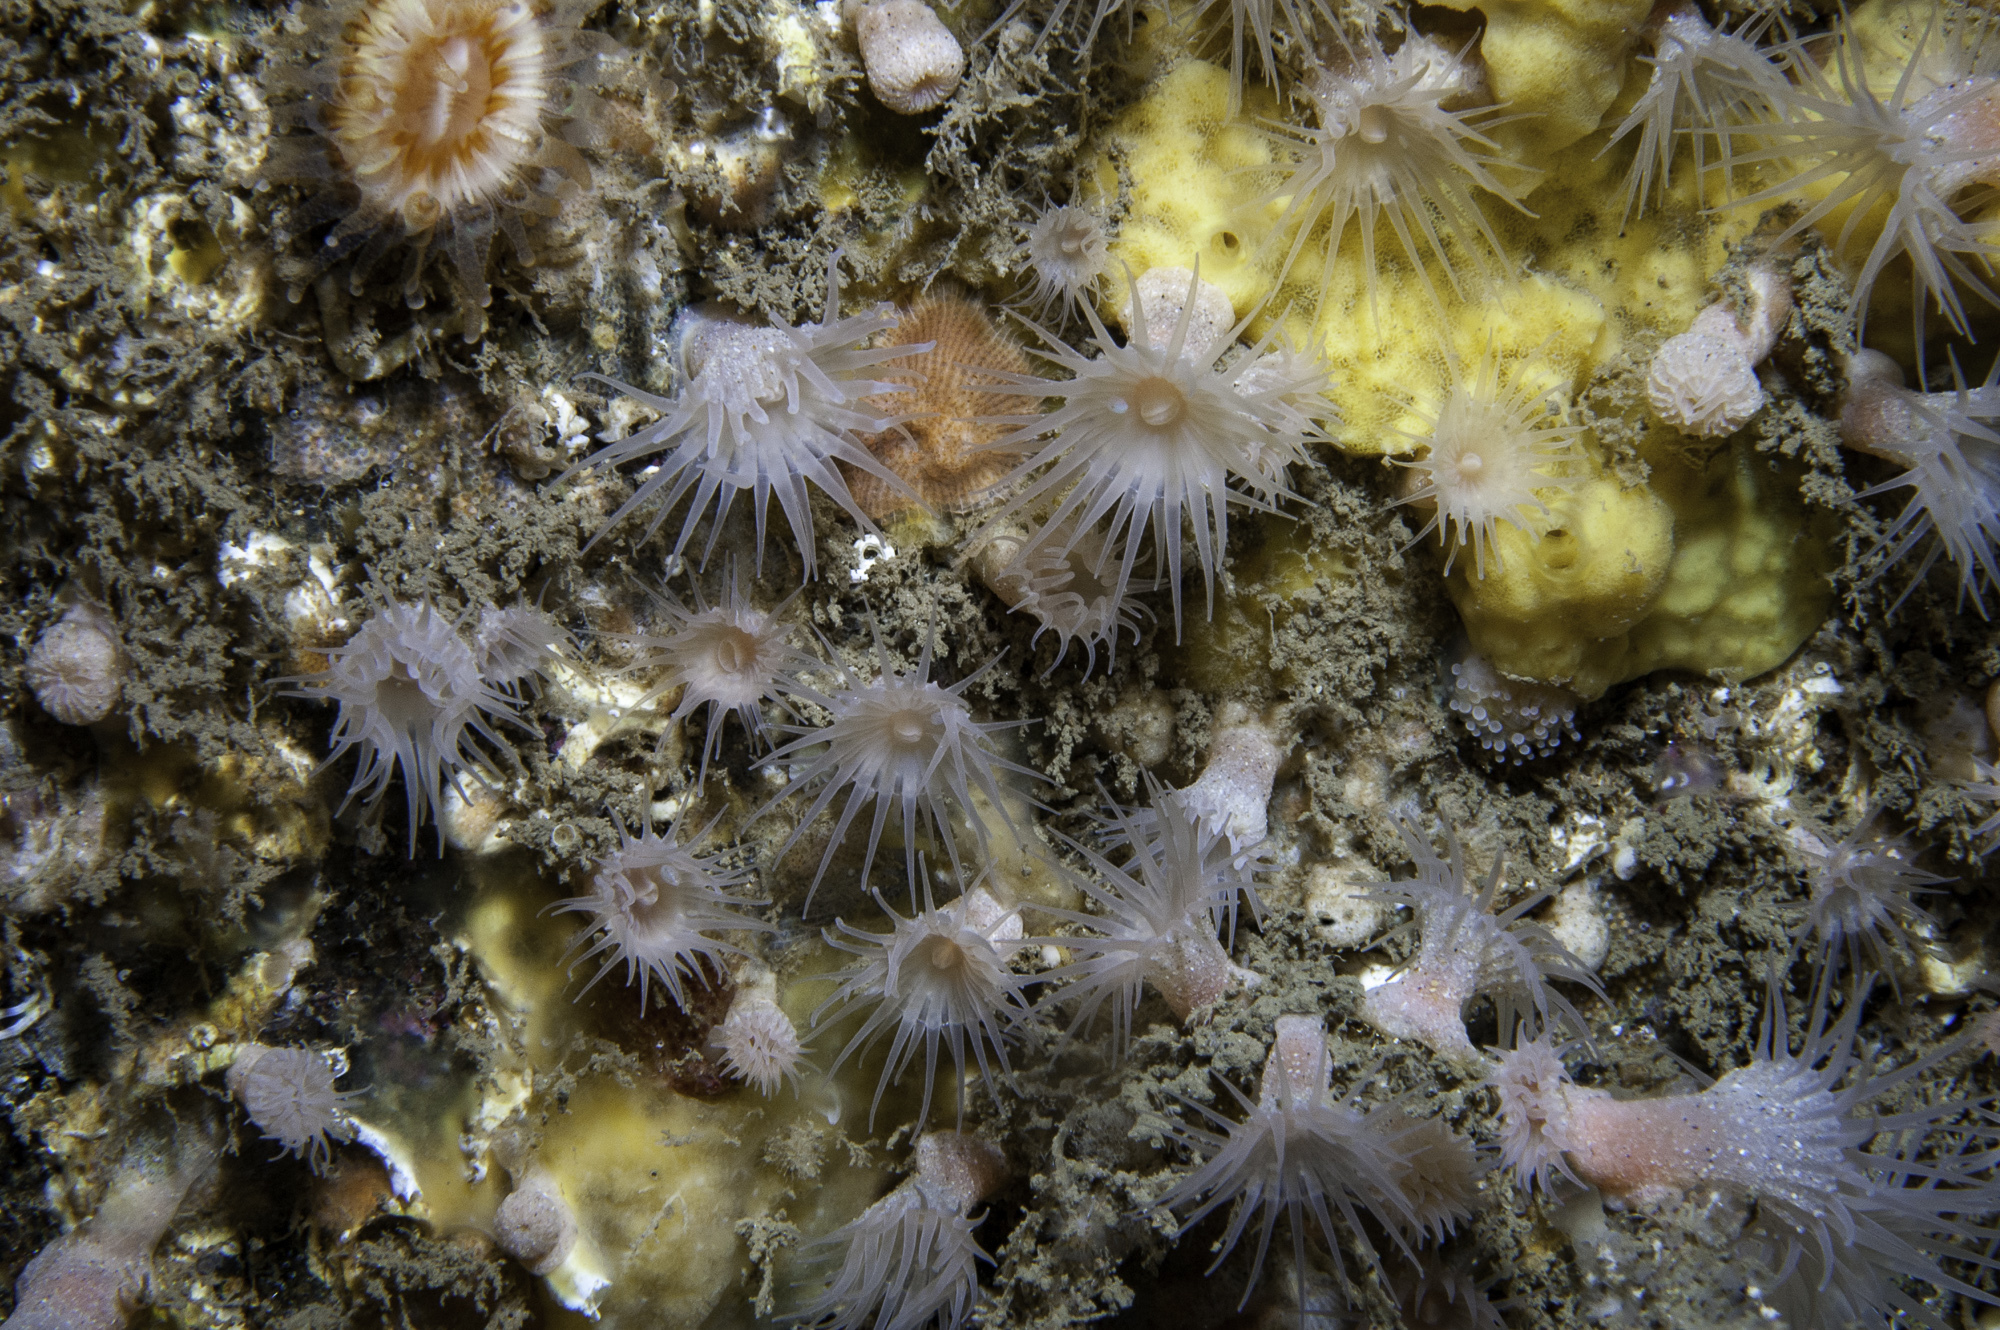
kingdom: Animalia
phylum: Cnidaria
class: Anthozoa
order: Zoantharia
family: Parazoanthidae
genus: Parazoanthus
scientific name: Parazoanthus anguicomus
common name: White cluster anemone
